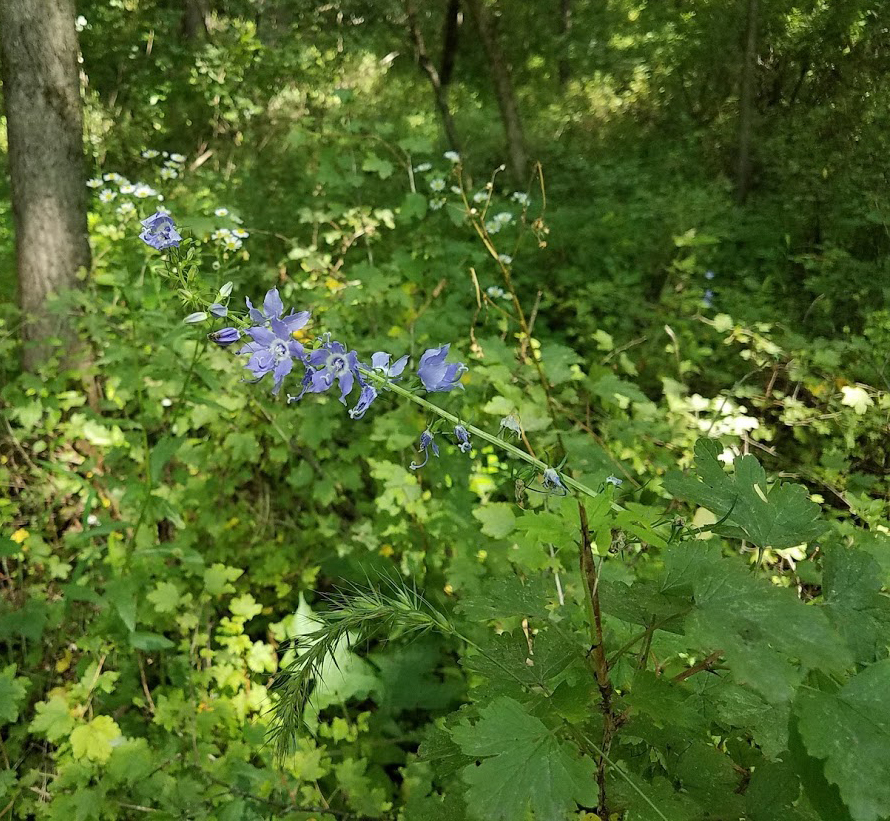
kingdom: Plantae
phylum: Tracheophyta
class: Magnoliopsida
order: Asterales
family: Campanulaceae
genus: Campanulastrum
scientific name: Campanulastrum americanum
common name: American bellflower
